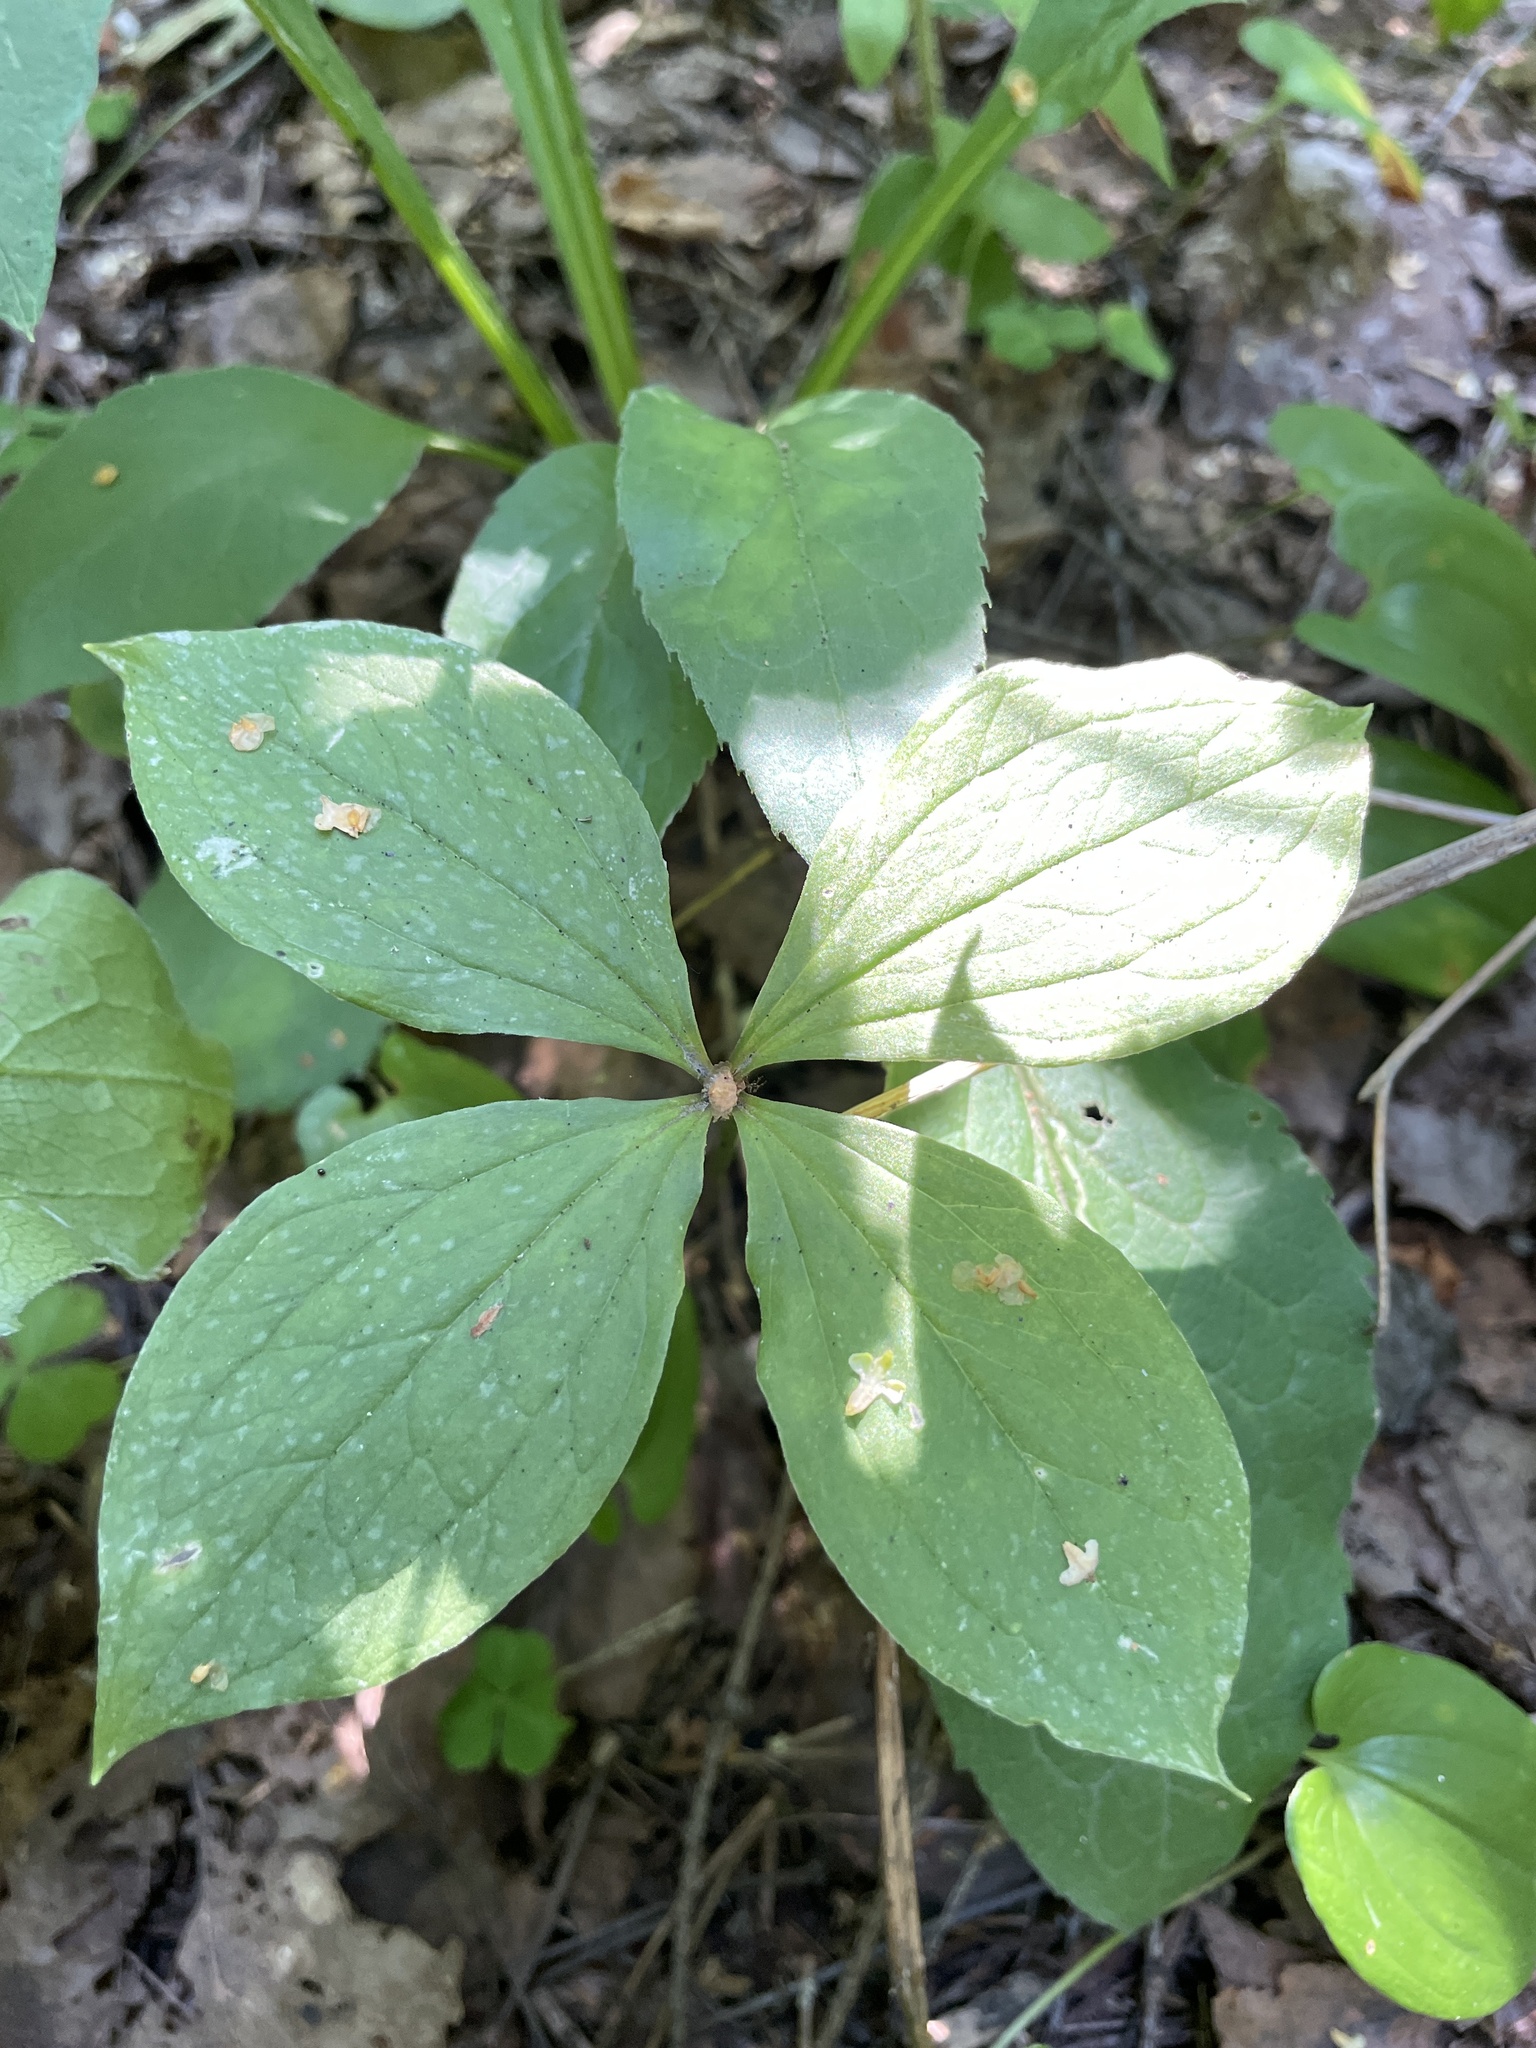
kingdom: Plantae
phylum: Tracheophyta
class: Liliopsida
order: Liliales
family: Melanthiaceae
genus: Paris
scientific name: Paris quadrifolia
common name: Herb-paris
